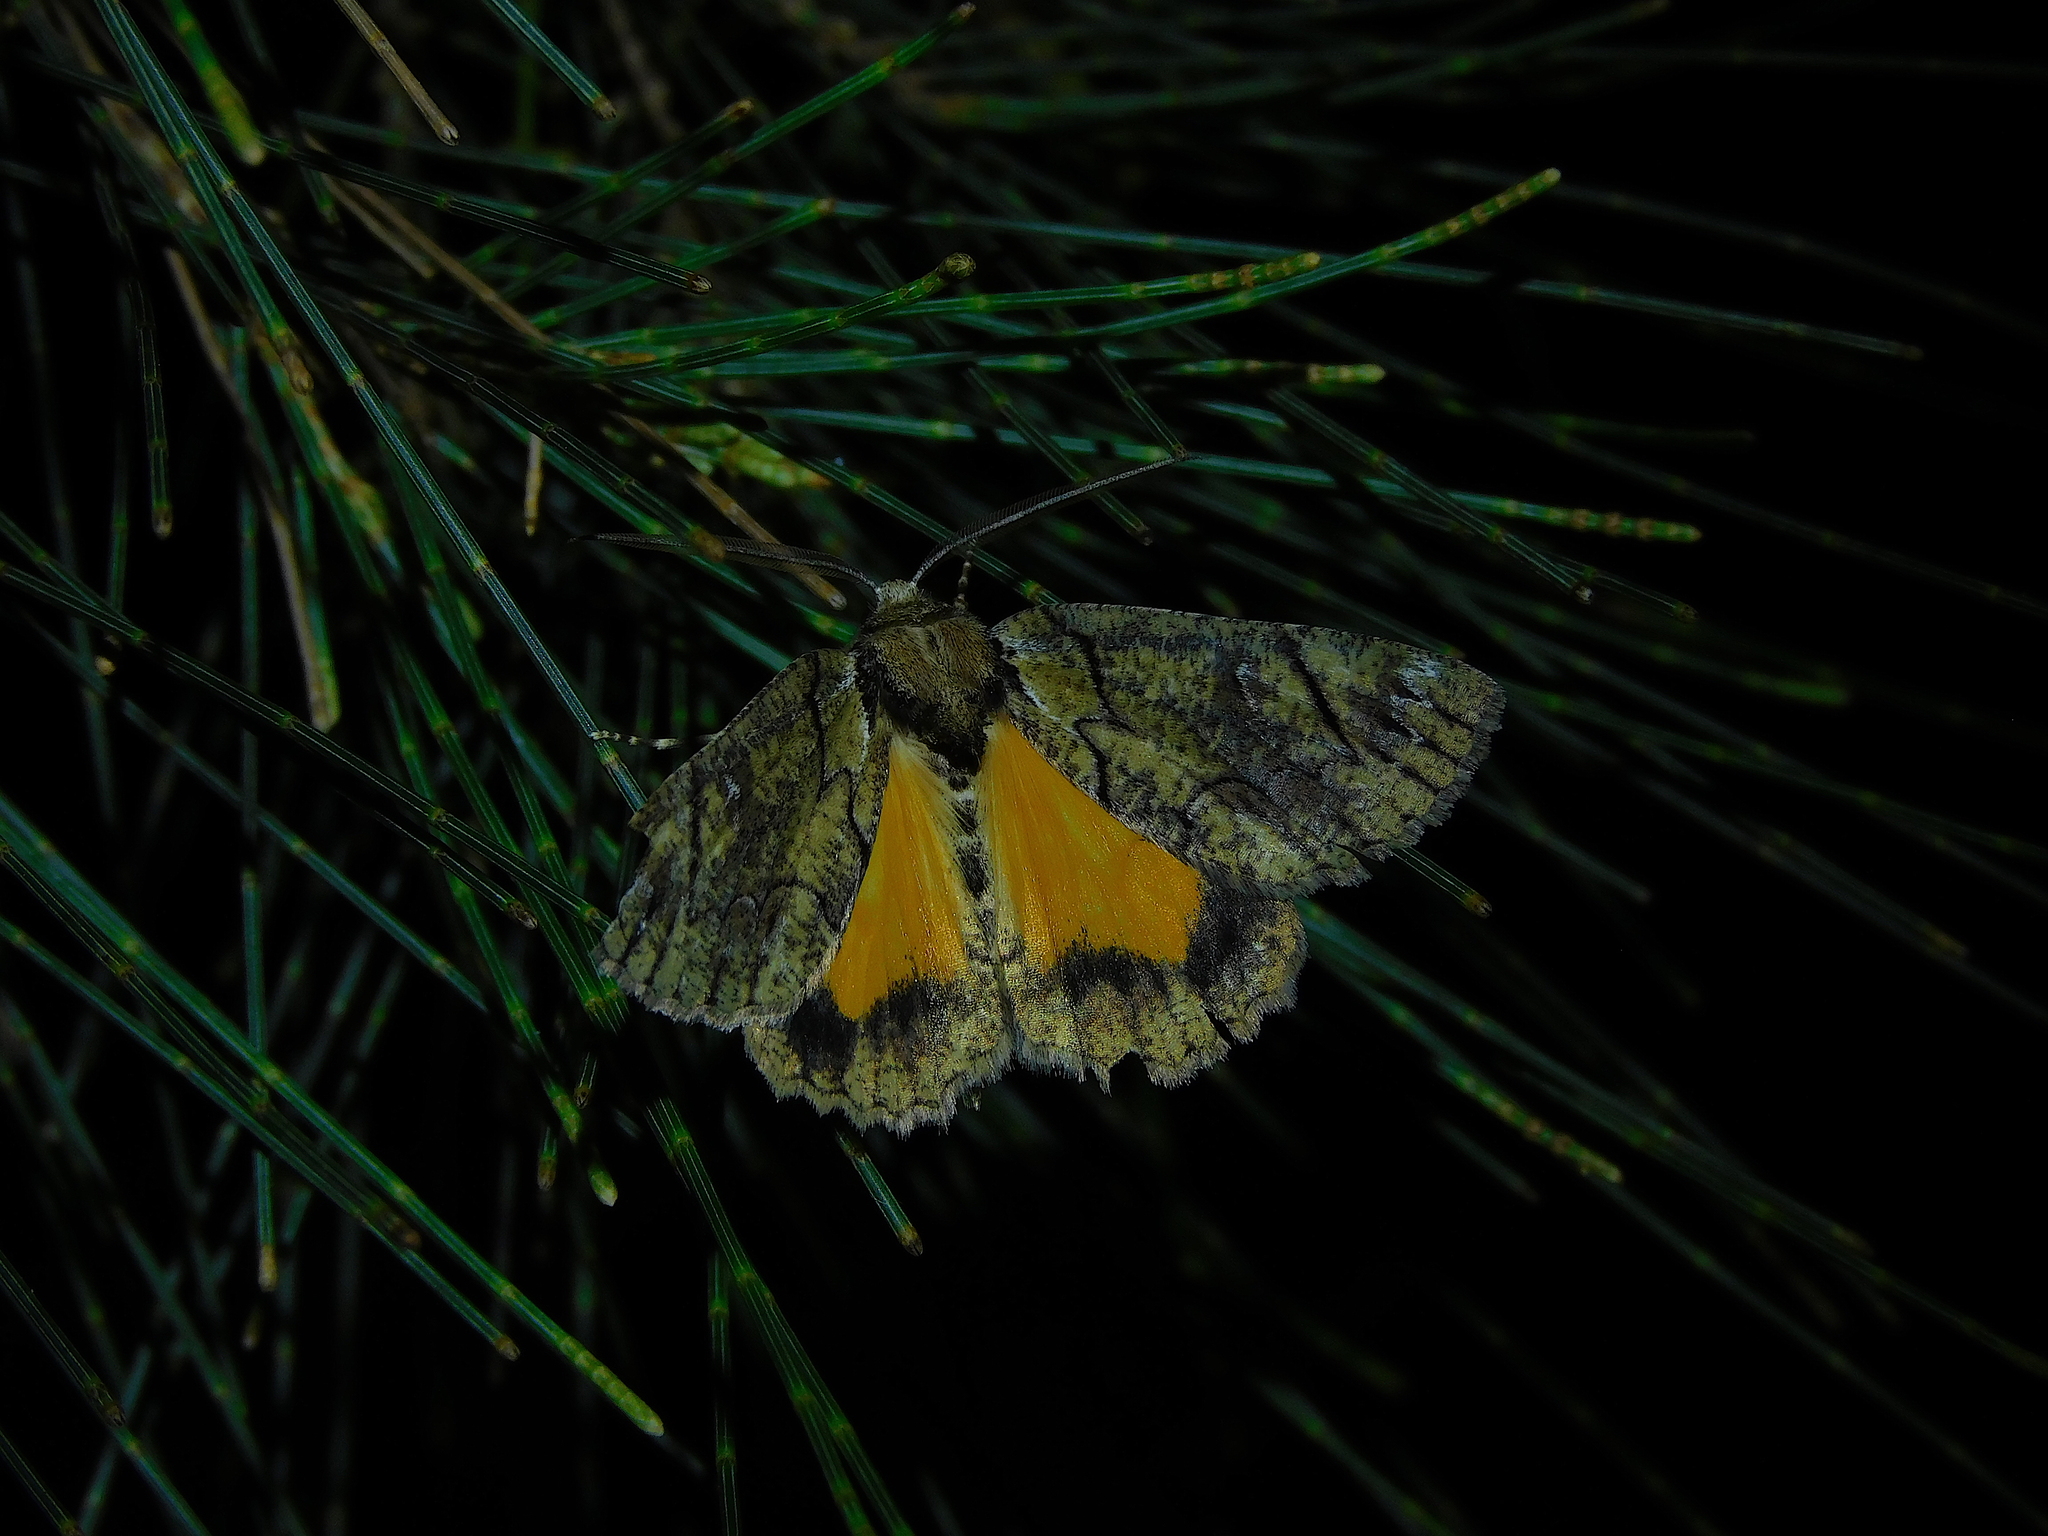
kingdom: Animalia
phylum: Arthropoda
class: Insecta
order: Lepidoptera
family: Geometridae
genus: Heliomystis
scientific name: Heliomystis electrica
